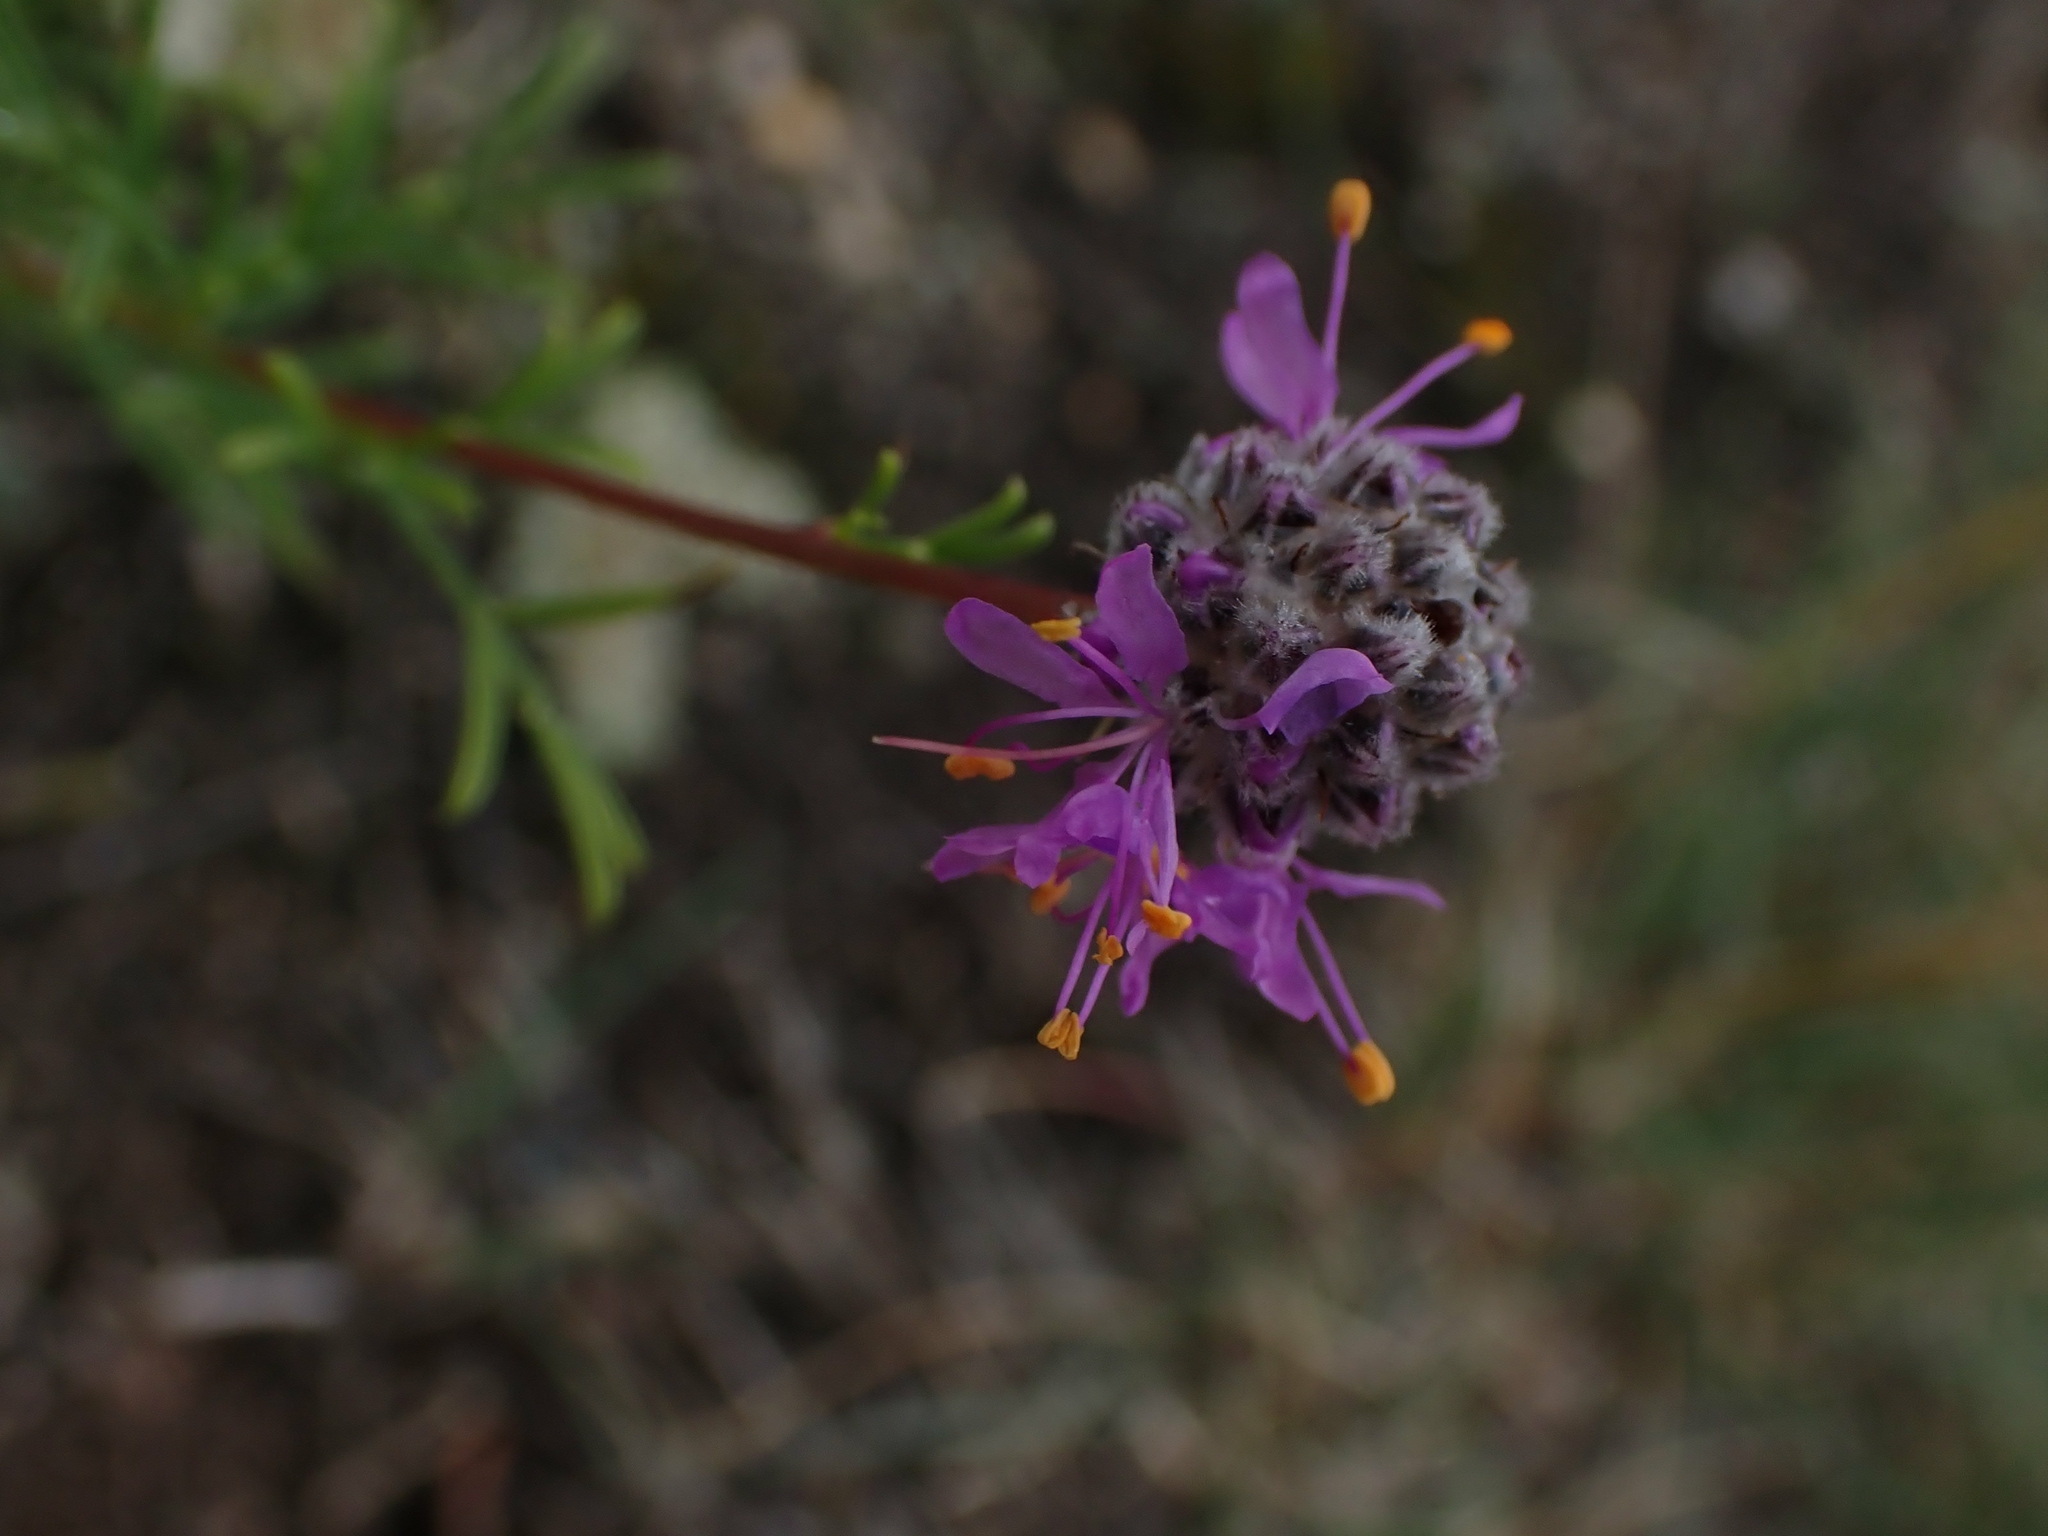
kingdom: Plantae
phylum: Tracheophyta
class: Magnoliopsida
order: Fabales
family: Fabaceae
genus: Dalea
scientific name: Dalea purpurea
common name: Purple prairie-clover
